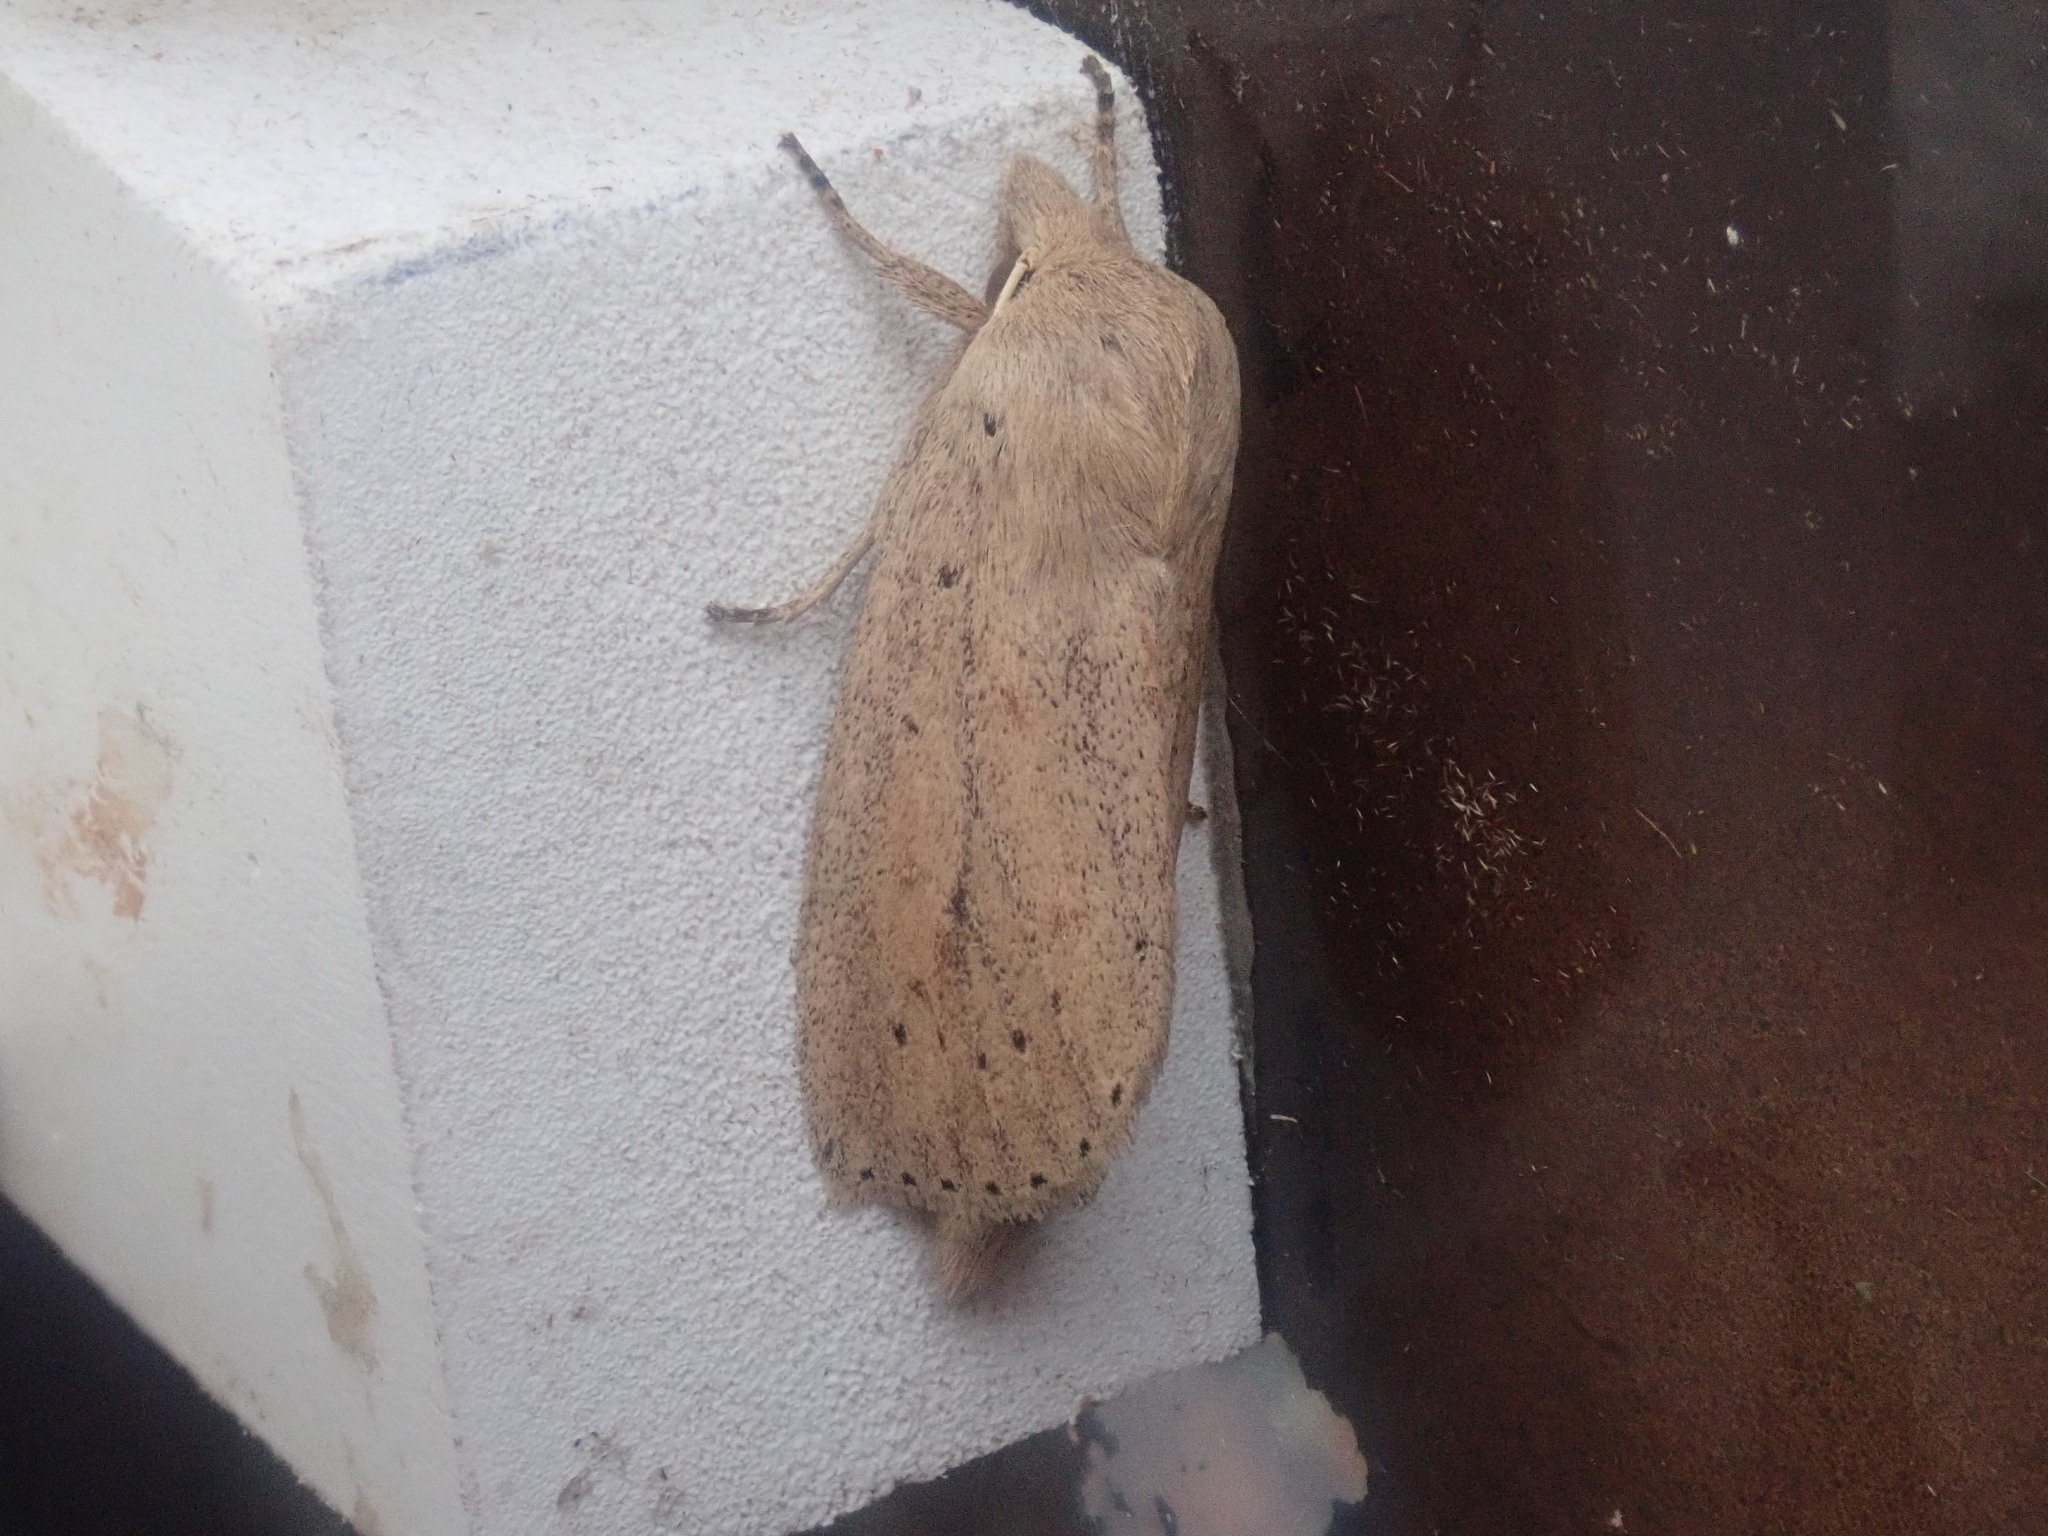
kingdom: Animalia
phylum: Arthropoda
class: Insecta
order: Lepidoptera
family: Noctuidae
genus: Globia
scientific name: Globia oblonga
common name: Oblong sedge borer moth
